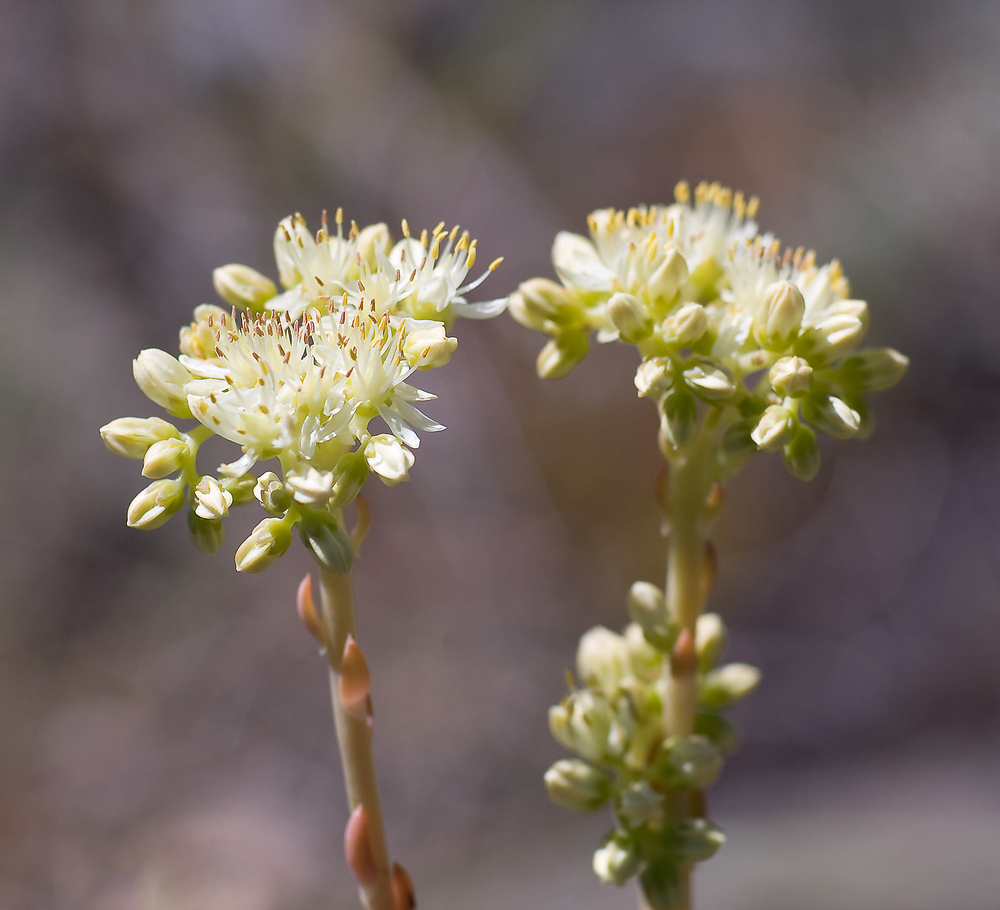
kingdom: Plantae
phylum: Tracheophyta
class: Magnoliopsida
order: Saxifragales
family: Crassulaceae
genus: Petrosedum
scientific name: Petrosedum sediforme
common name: Pale stonecrop
